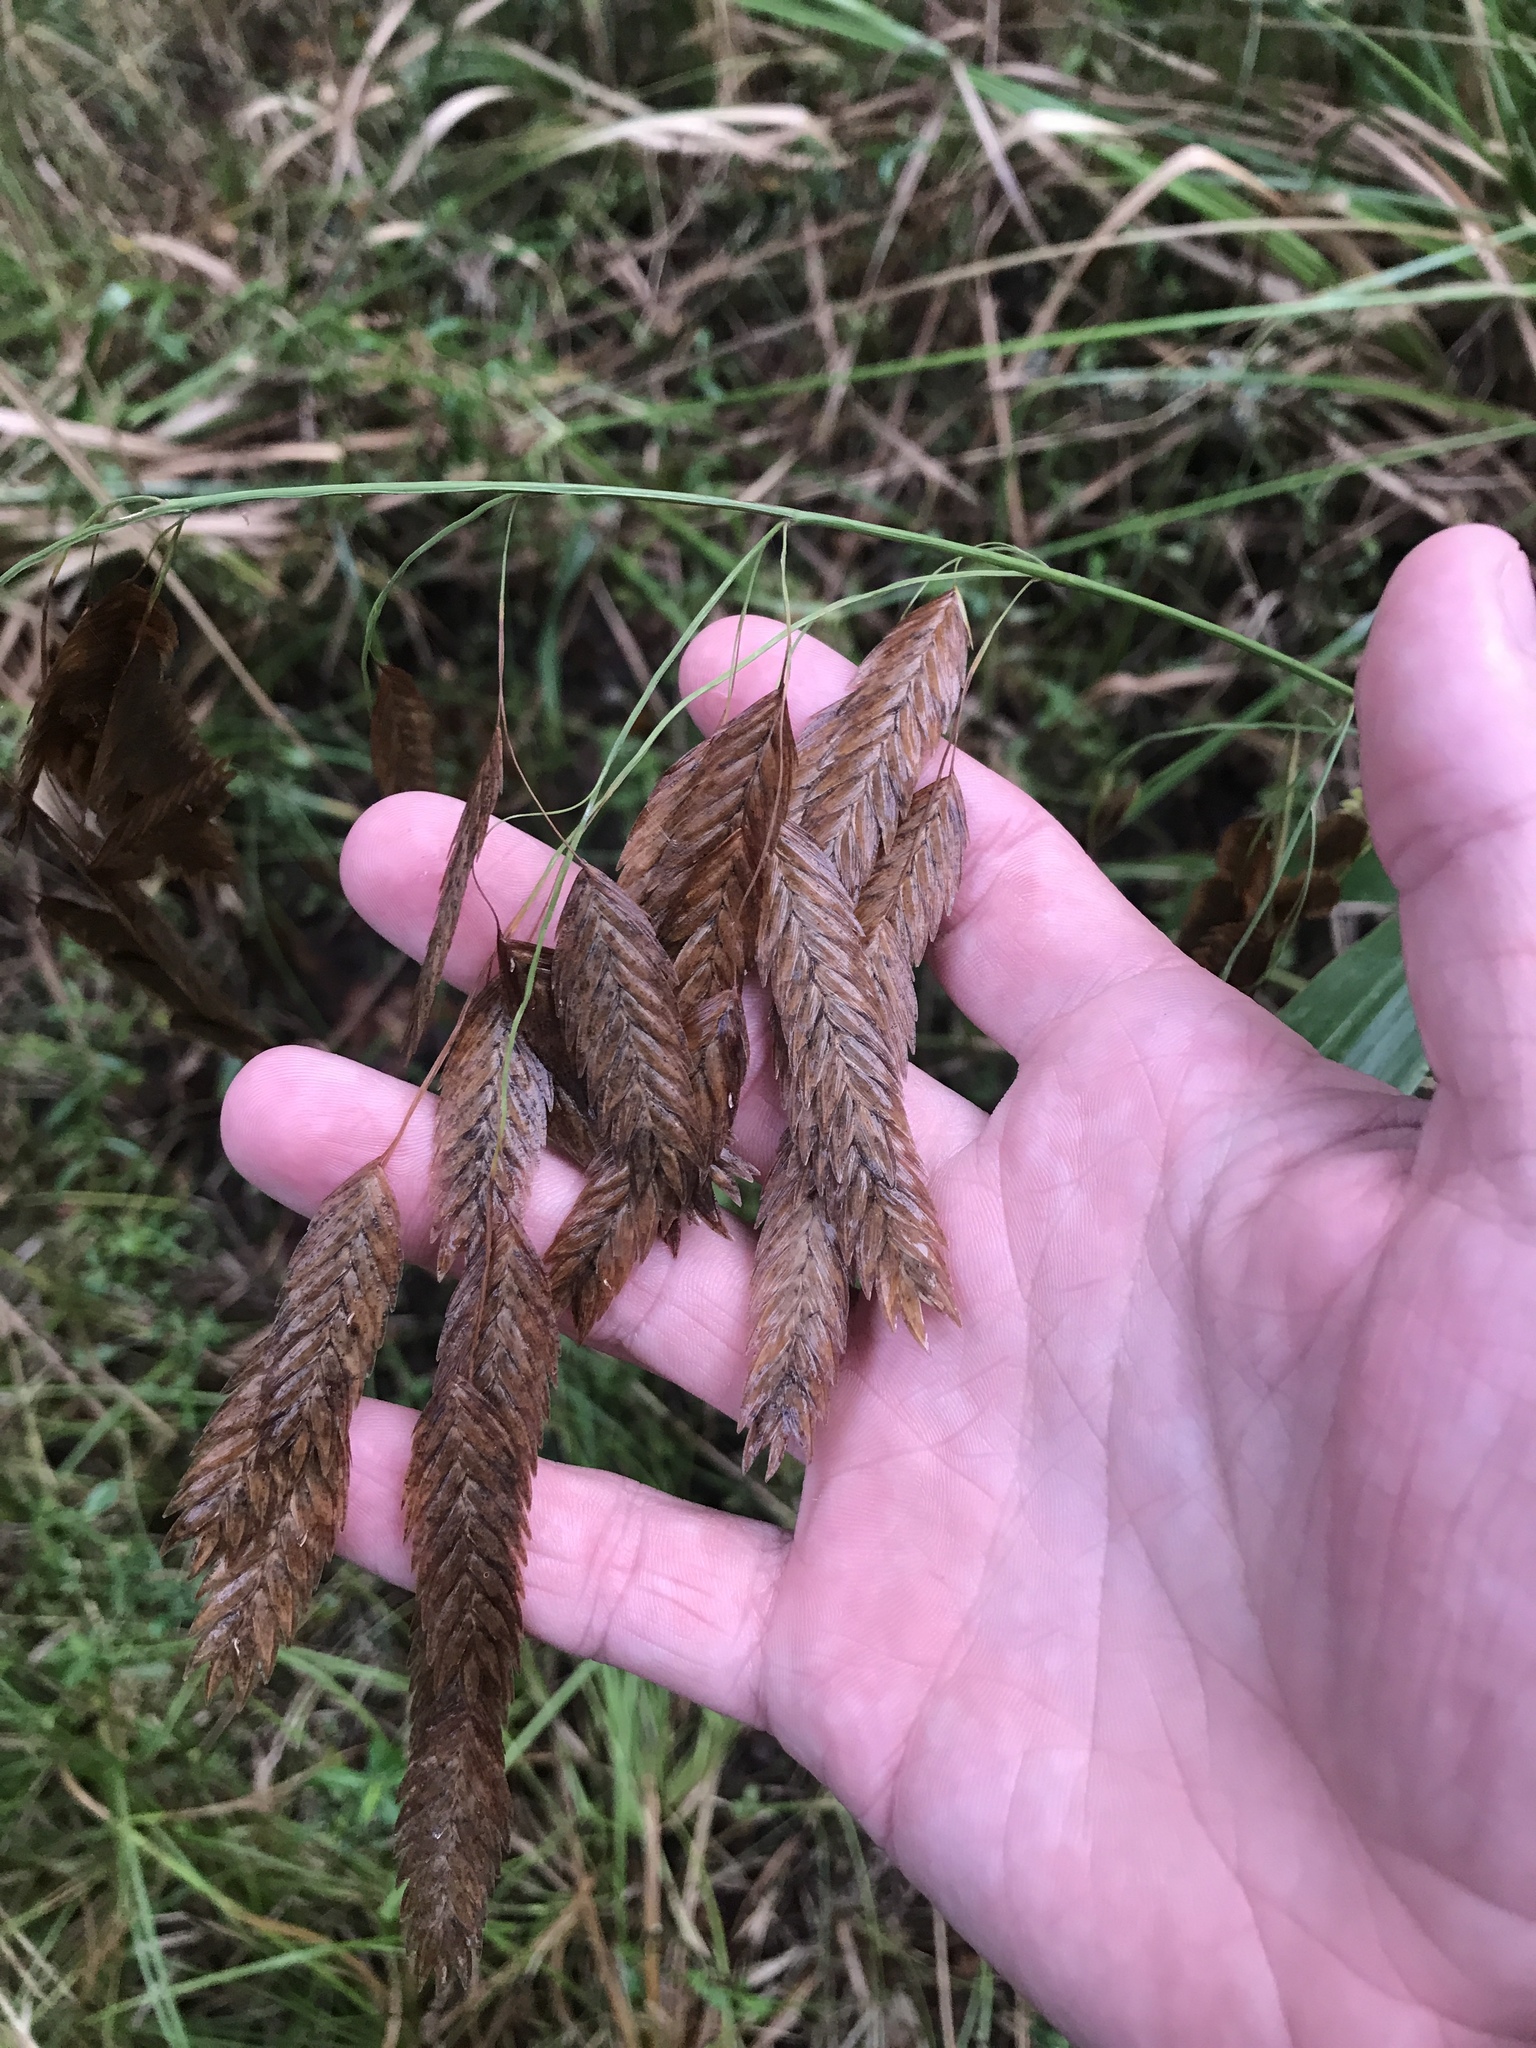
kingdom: Plantae
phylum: Tracheophyta
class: Liliopsida
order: Poales
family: Poaceae
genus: Chasmanthium
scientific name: Chasmanthium latifolium
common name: Broad-leaved chasmanthium
